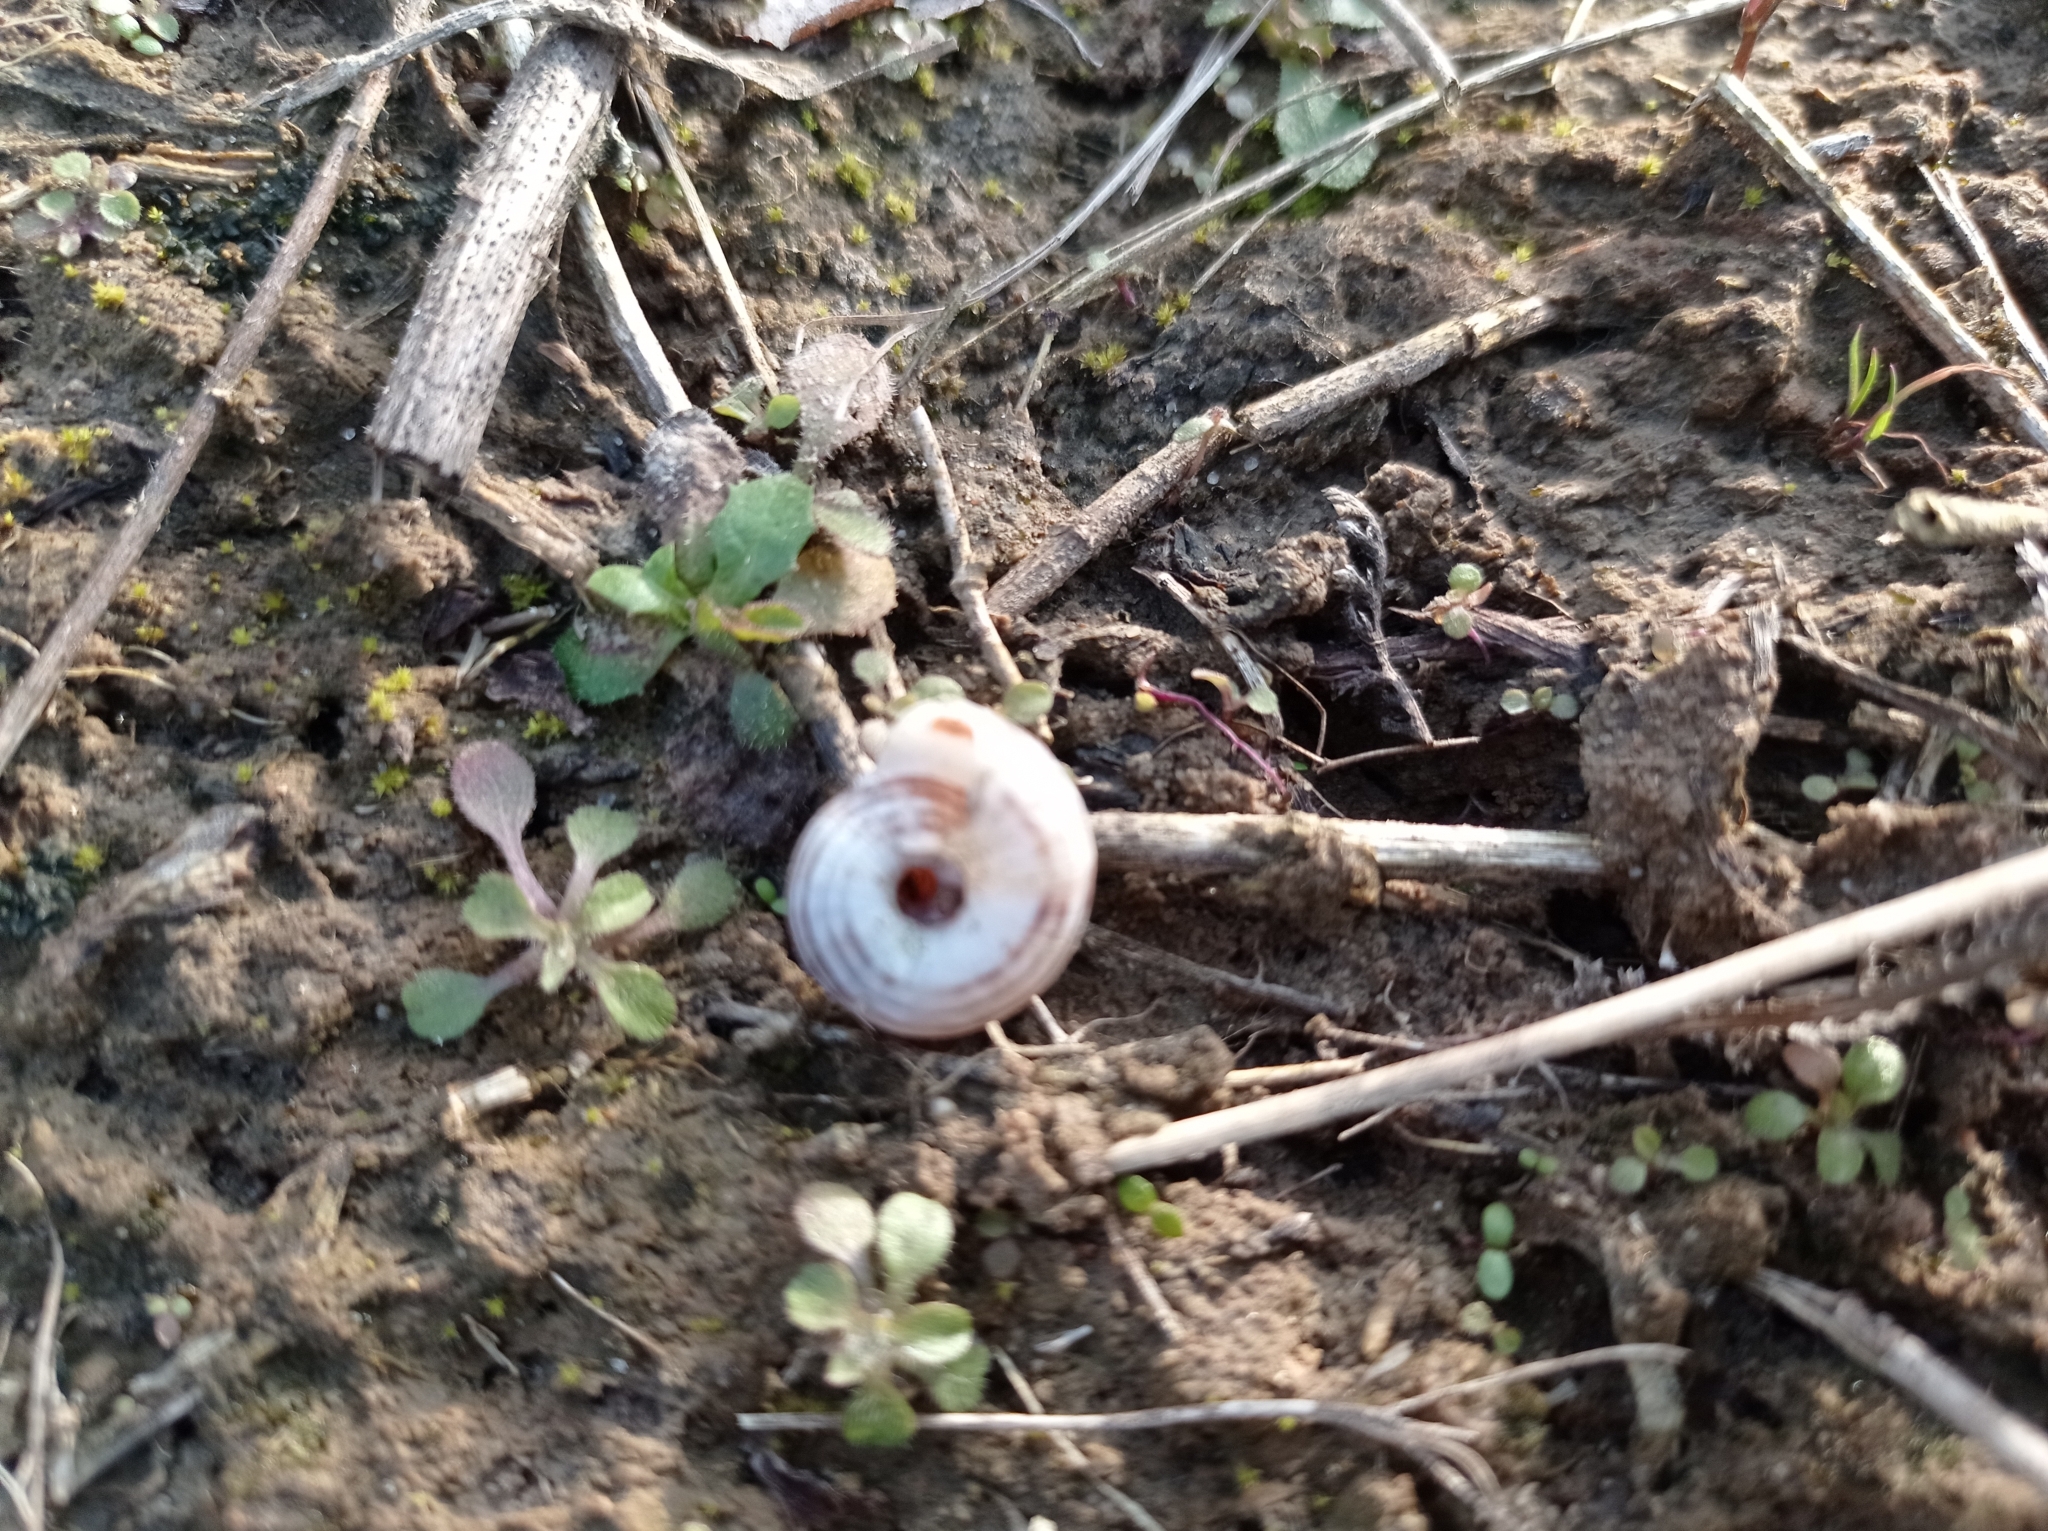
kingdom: Animalia
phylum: Mollusca
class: Gastropoda
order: Stylommatophora
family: Geomitridae
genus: Xerolenta
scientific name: Xerolenta obvia
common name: White heath snail
